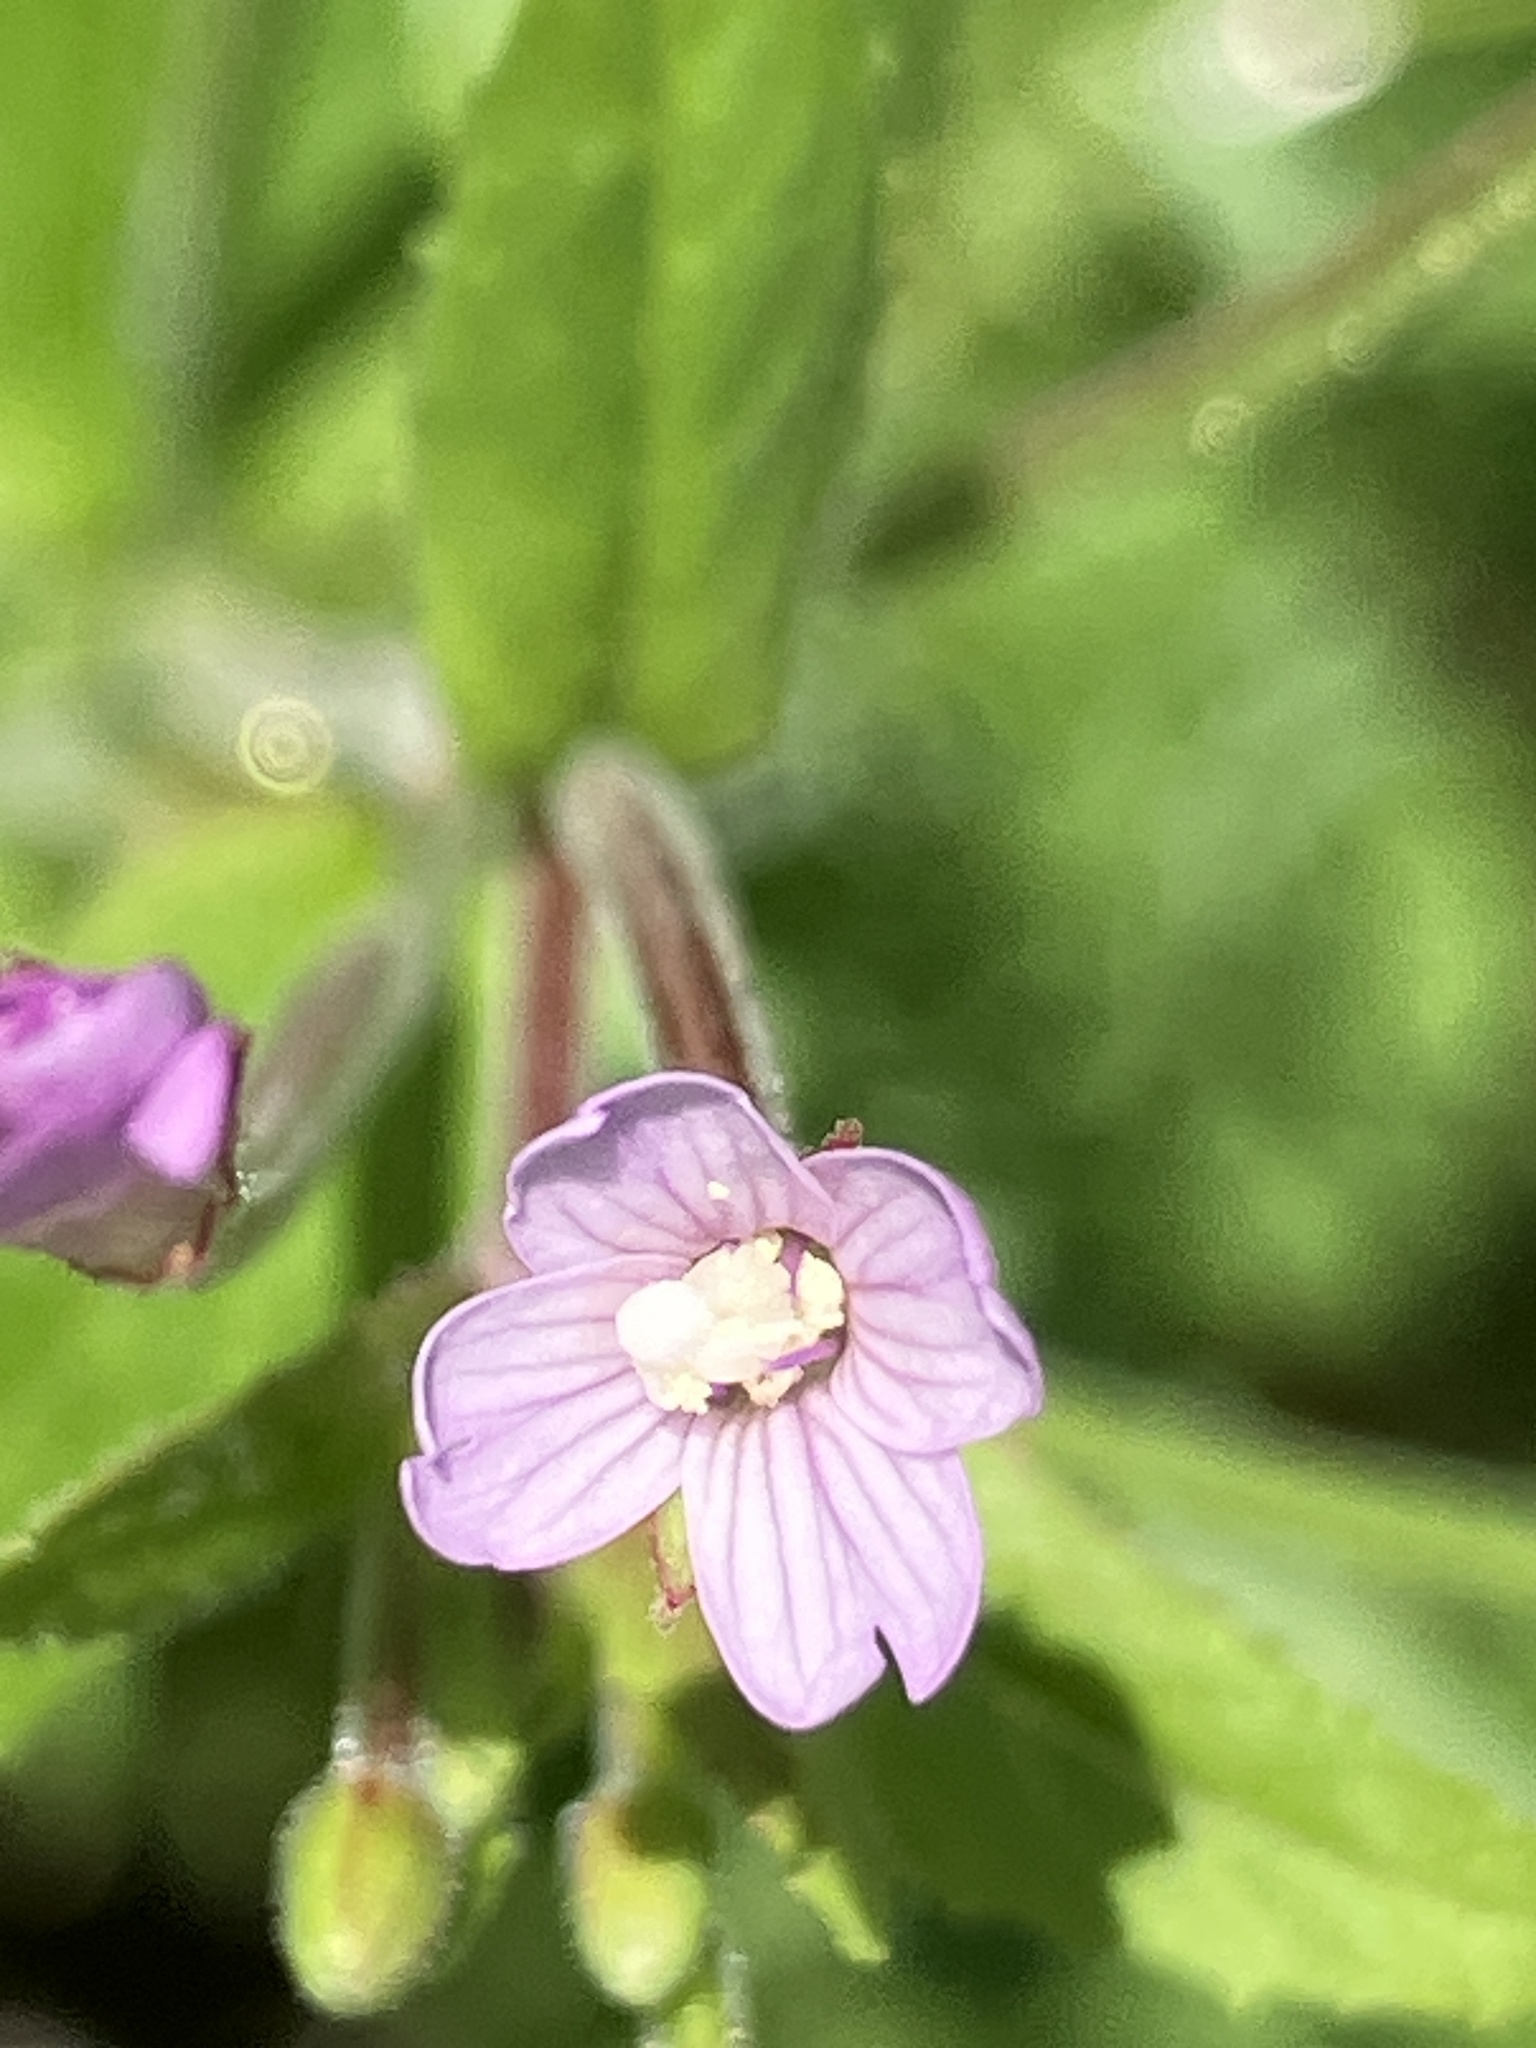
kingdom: Plantae
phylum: Tracheophyta
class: Magnoliopsida
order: Myrtales
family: Onagraceae
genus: Epilobium
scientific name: Epilobium ciliatum
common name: American willowherb
